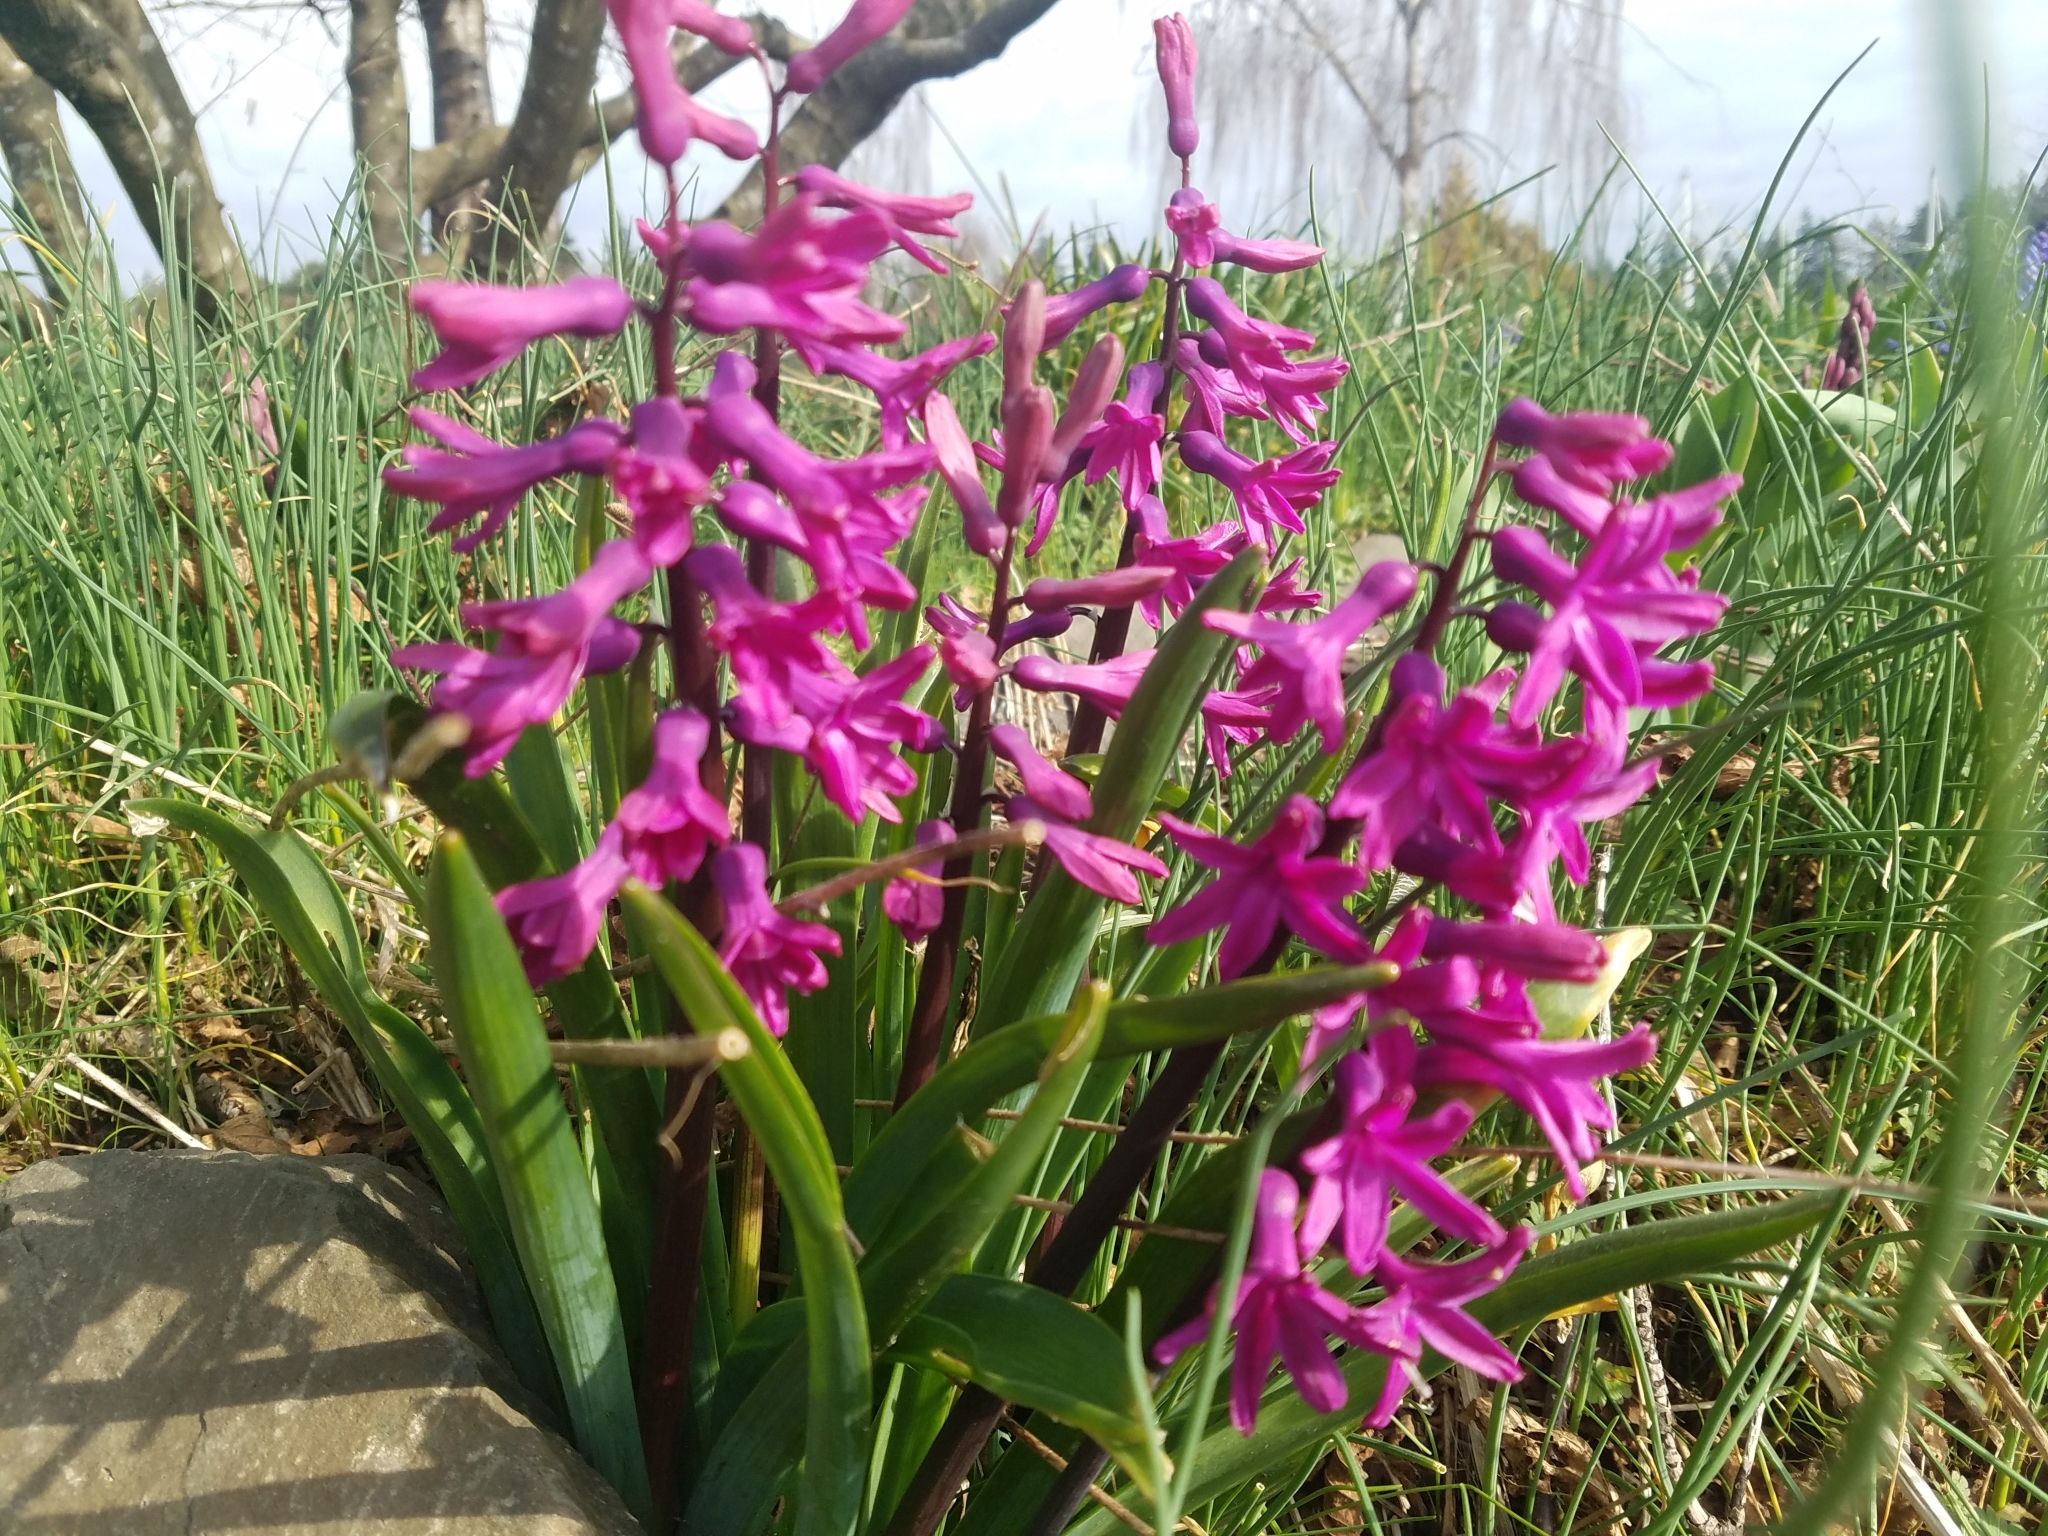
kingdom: Plantae
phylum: Tracheophyta
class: Liliopsida
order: Asparagales
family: Asparagaceae
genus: Hyacinthus
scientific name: Hyacinthus orientalis
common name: Hyacinth
